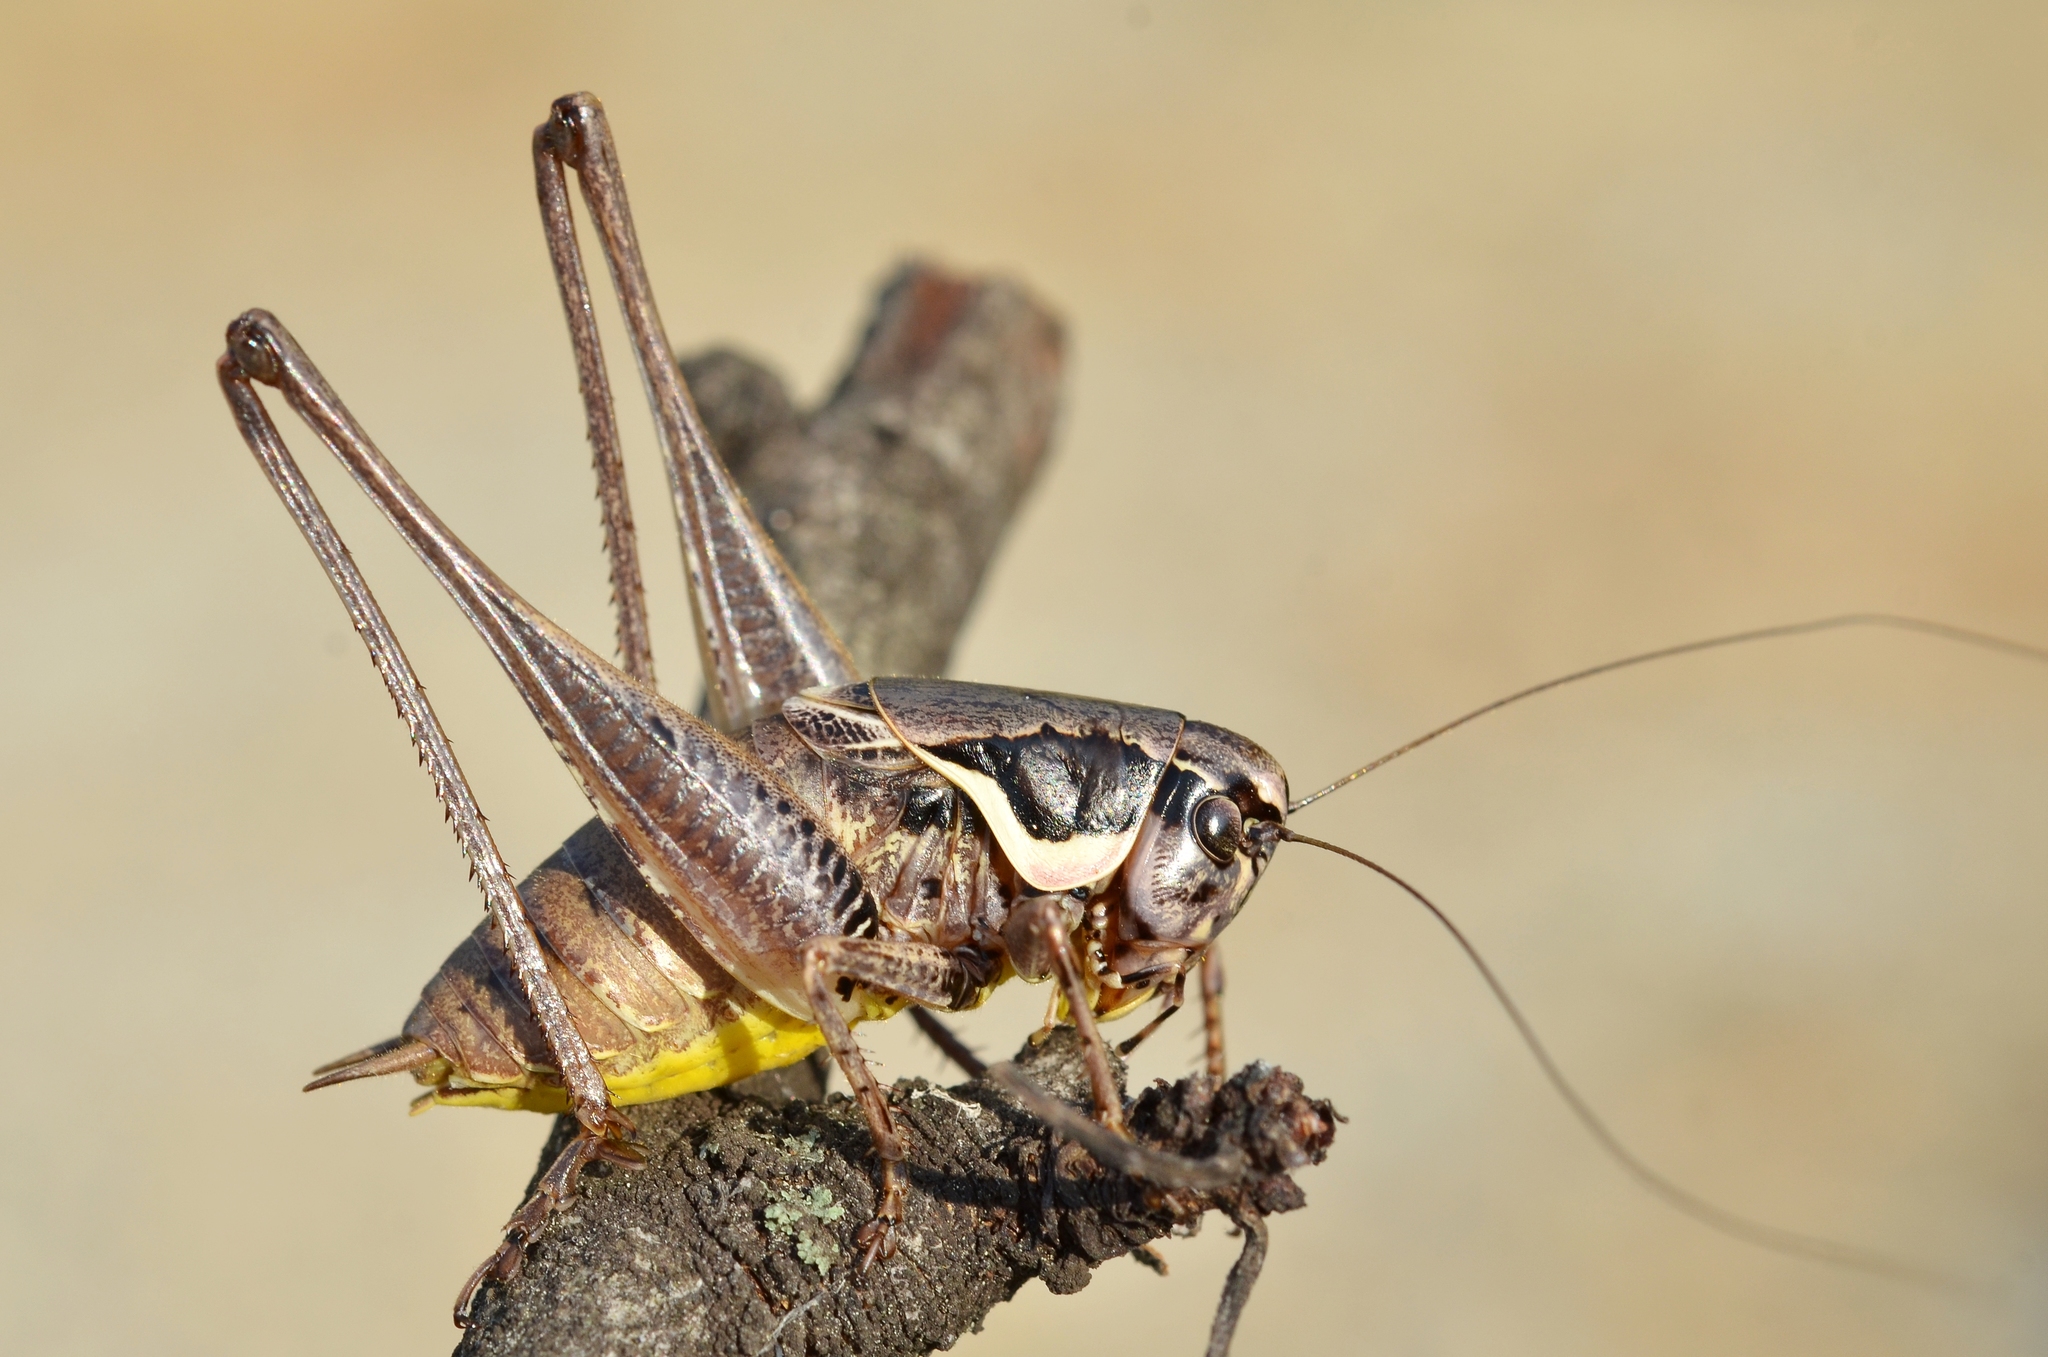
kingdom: Animalia
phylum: Arthropoda
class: Insecta
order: Orthoptera
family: Tettigoniidae
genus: Pholidoptera
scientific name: Pholidoptera femorata
